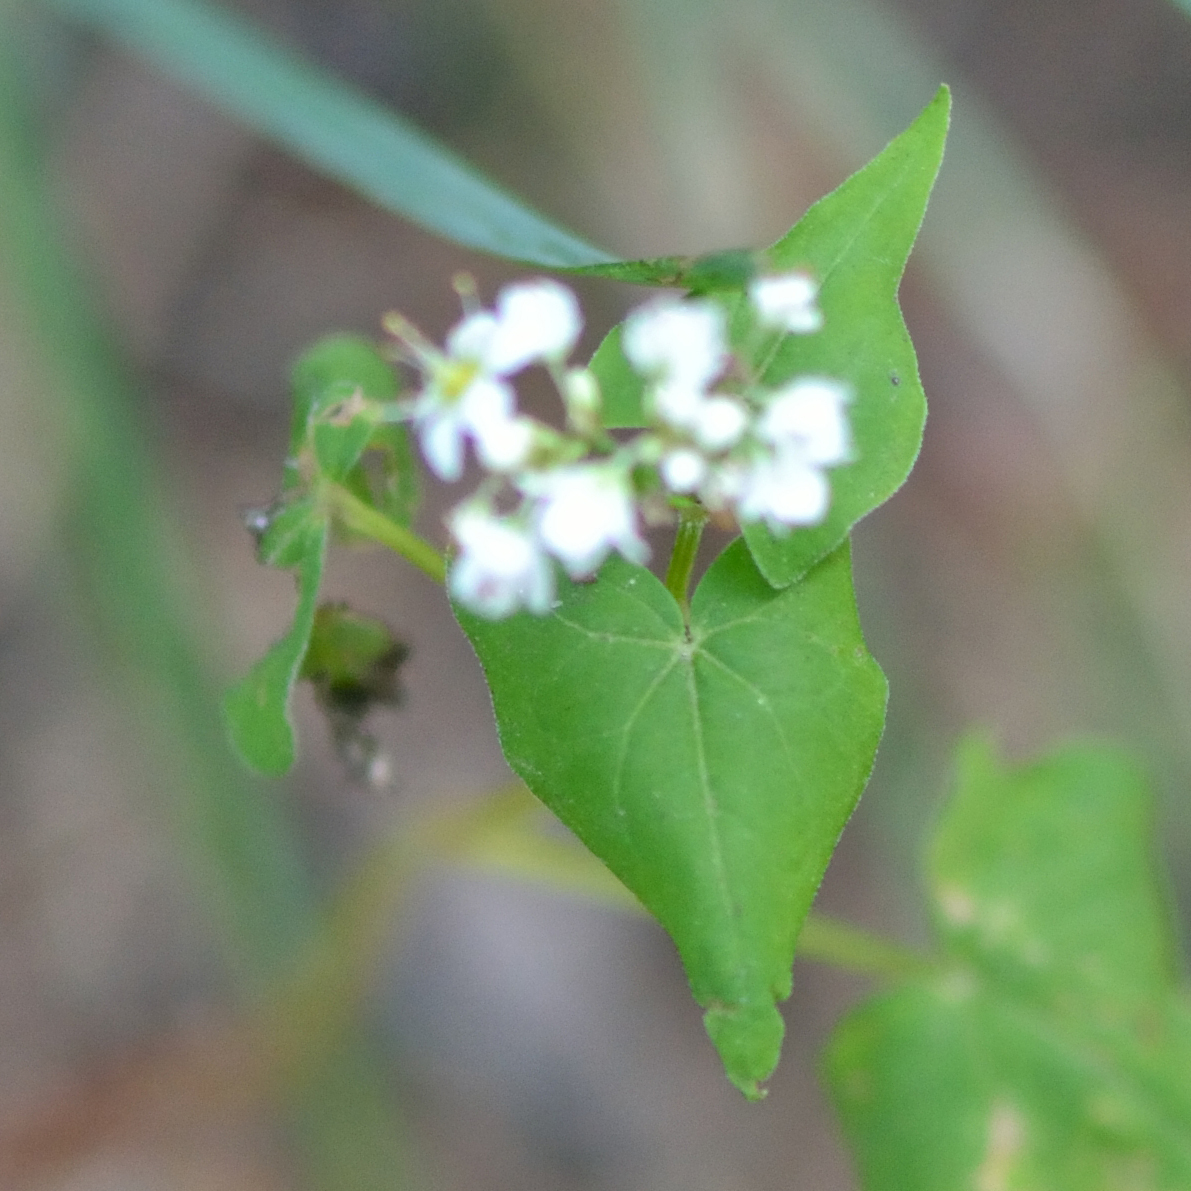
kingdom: Plantae
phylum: Tracheophyta
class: Magnoliopsida
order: Caryophyllales
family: Polygonaceae
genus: Fagopyrum
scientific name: Fagopyrum esculentum
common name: Buckwheat
